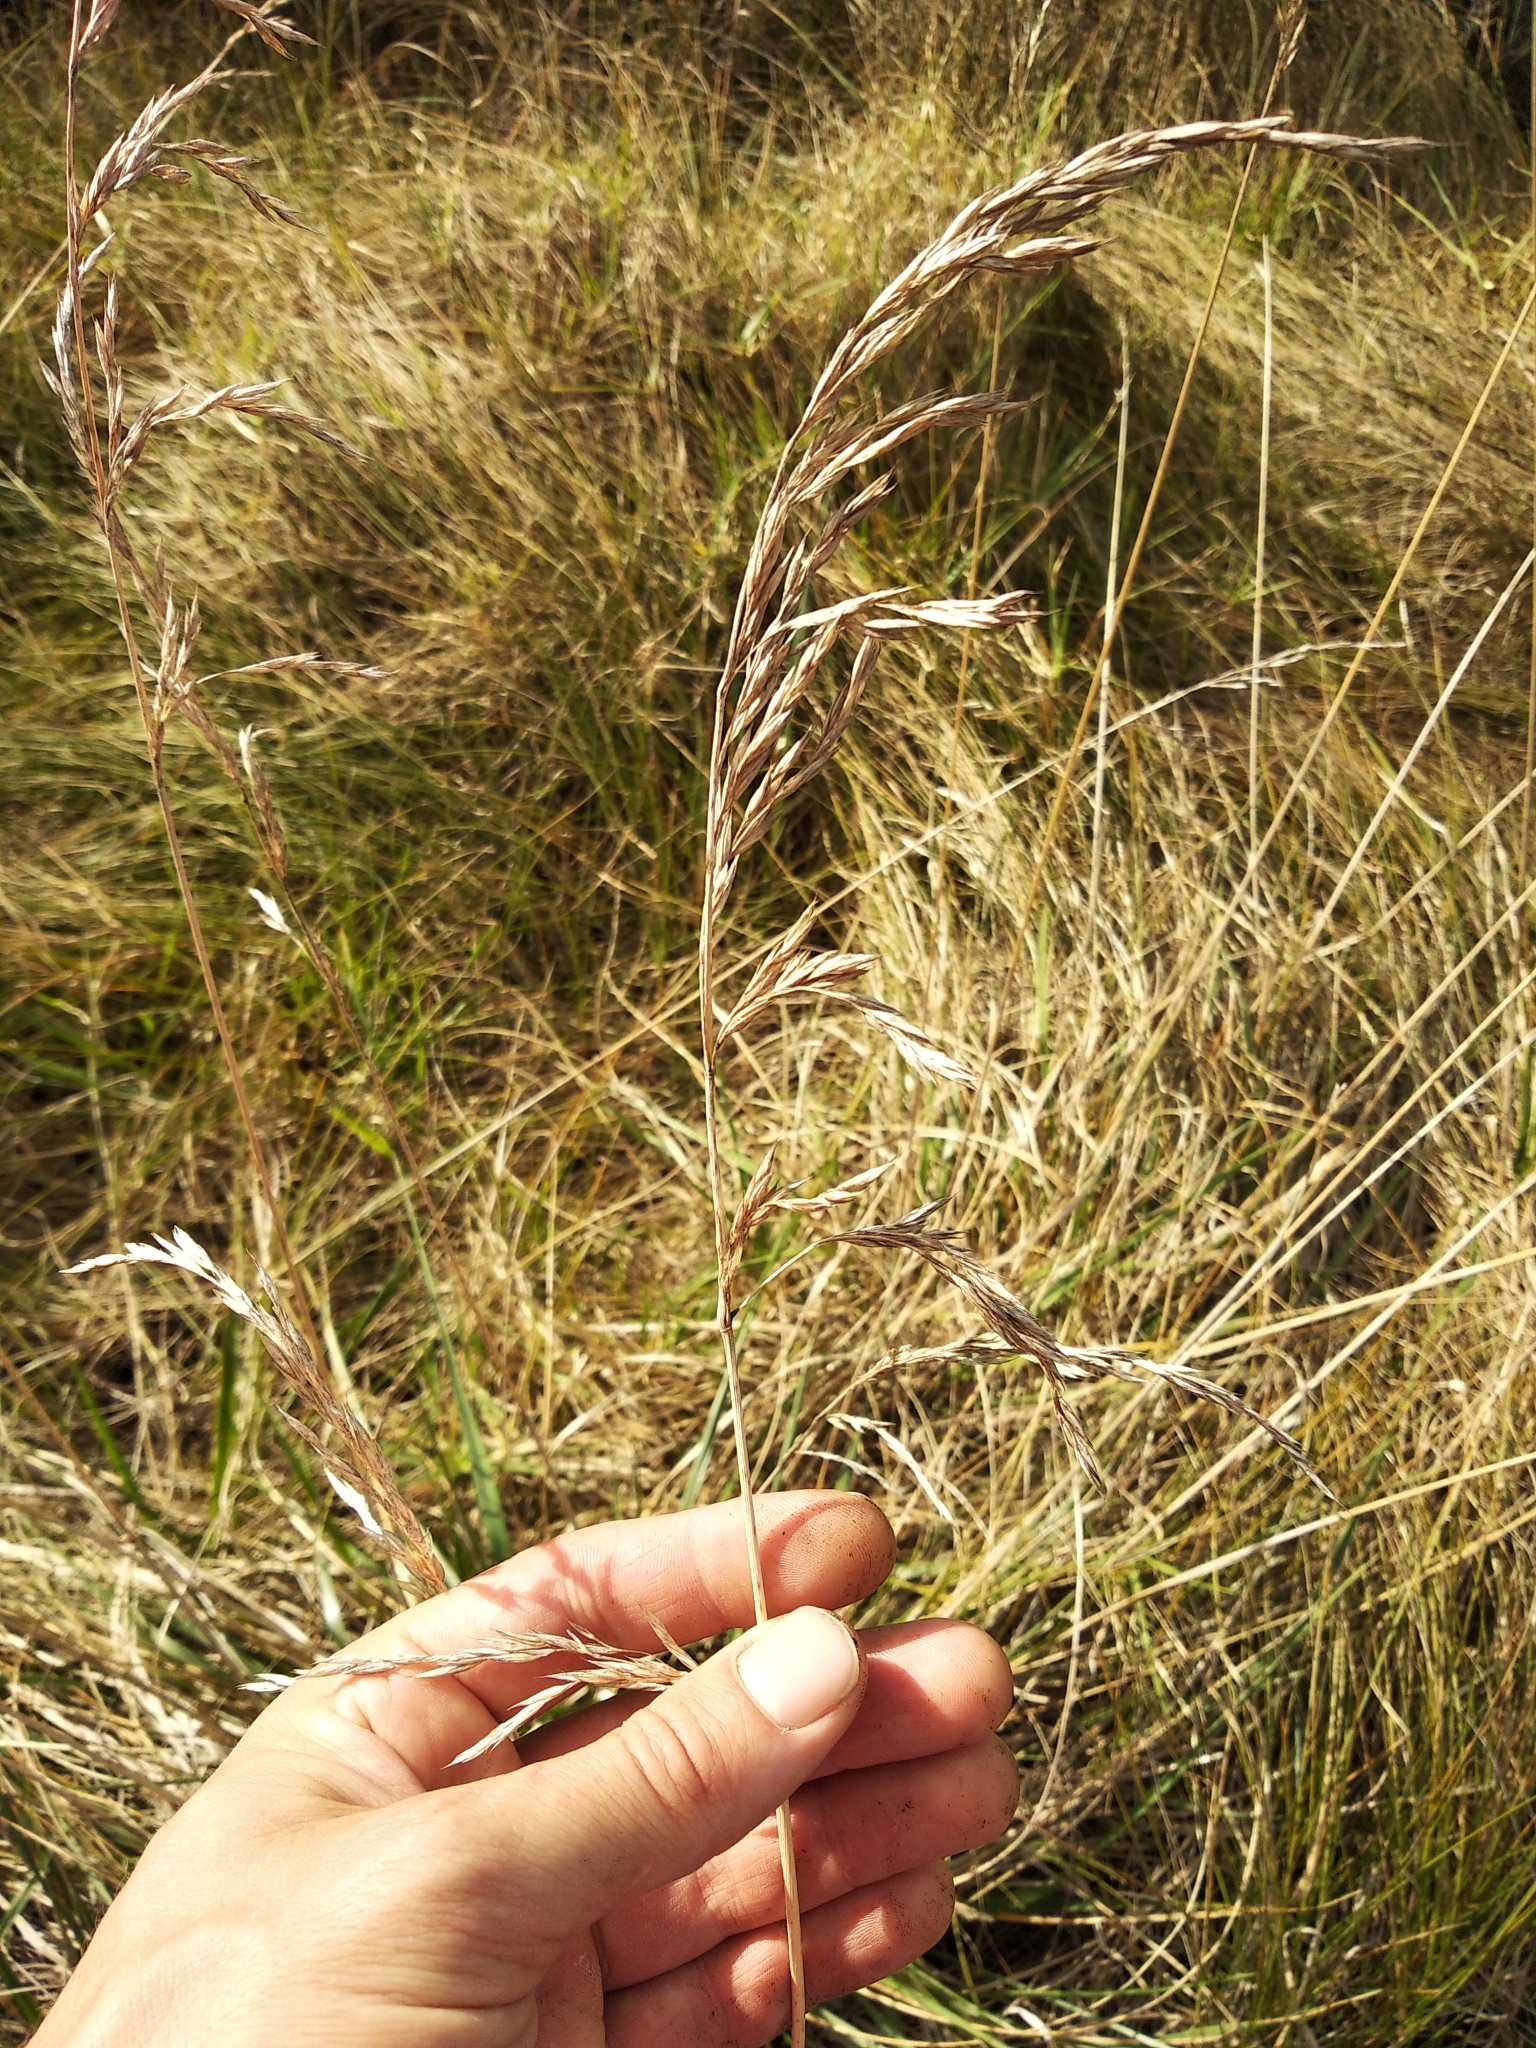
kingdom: Plantae
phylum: Tracheophyta
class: Liliopsida
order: Poales
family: Poaceae
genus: Lolium
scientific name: Lolium arundinaceum
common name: Reed fescue
